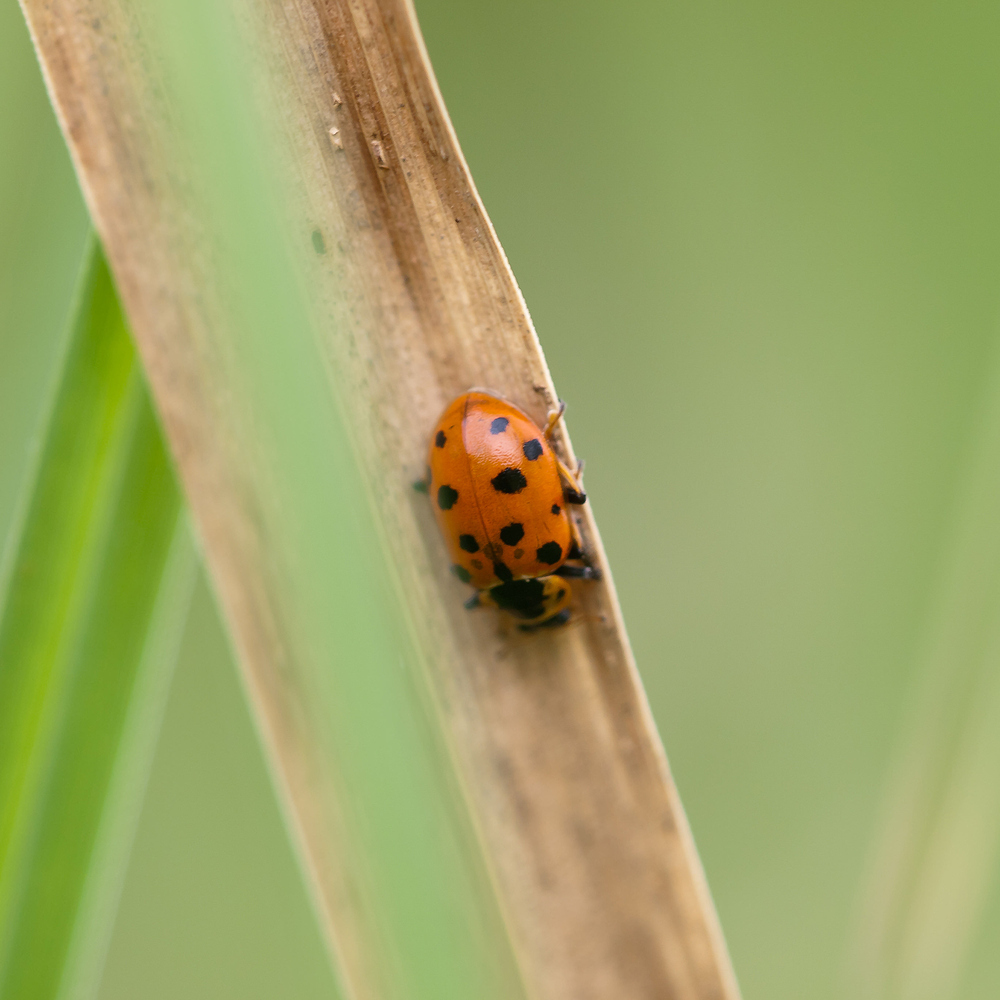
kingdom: Animalia
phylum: Arthropoda
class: Insecta
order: Coleoptera
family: Coccinellidae
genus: Hippodamia
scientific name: Hippodamia tredecimpunctata
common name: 13-spot ladybird
